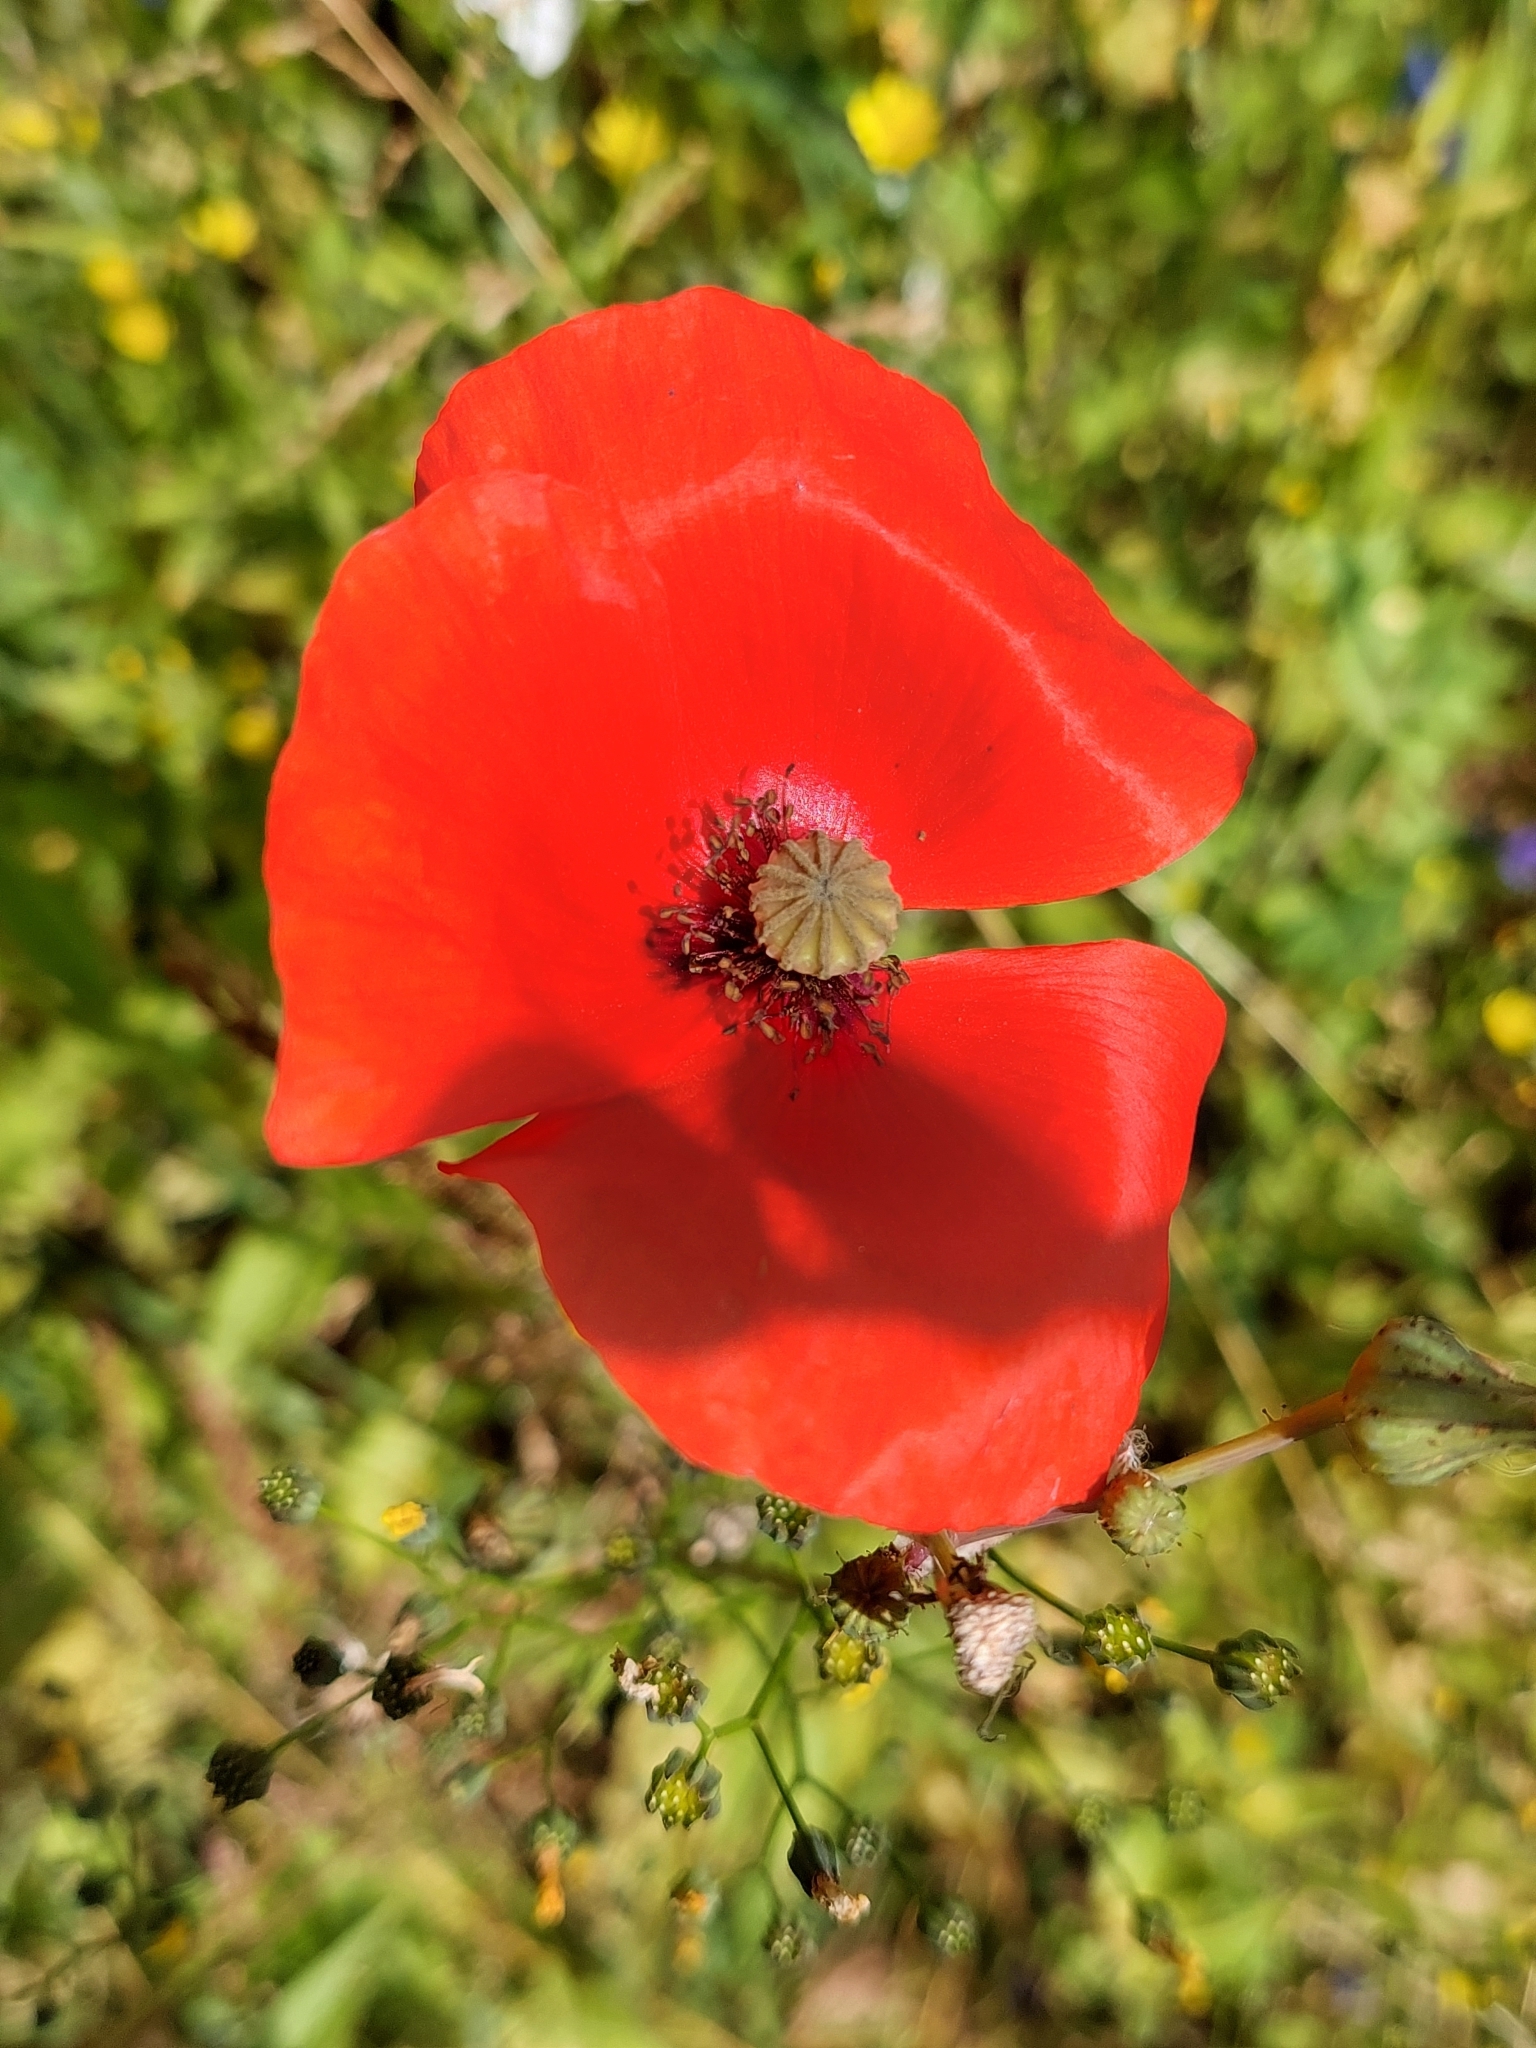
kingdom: Plantae
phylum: Tracheophyta
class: Magnoliopsida
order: Ranunculales
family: Papaveraceae
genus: Papaver
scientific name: Papaver rhoeas
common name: Corn poppy
